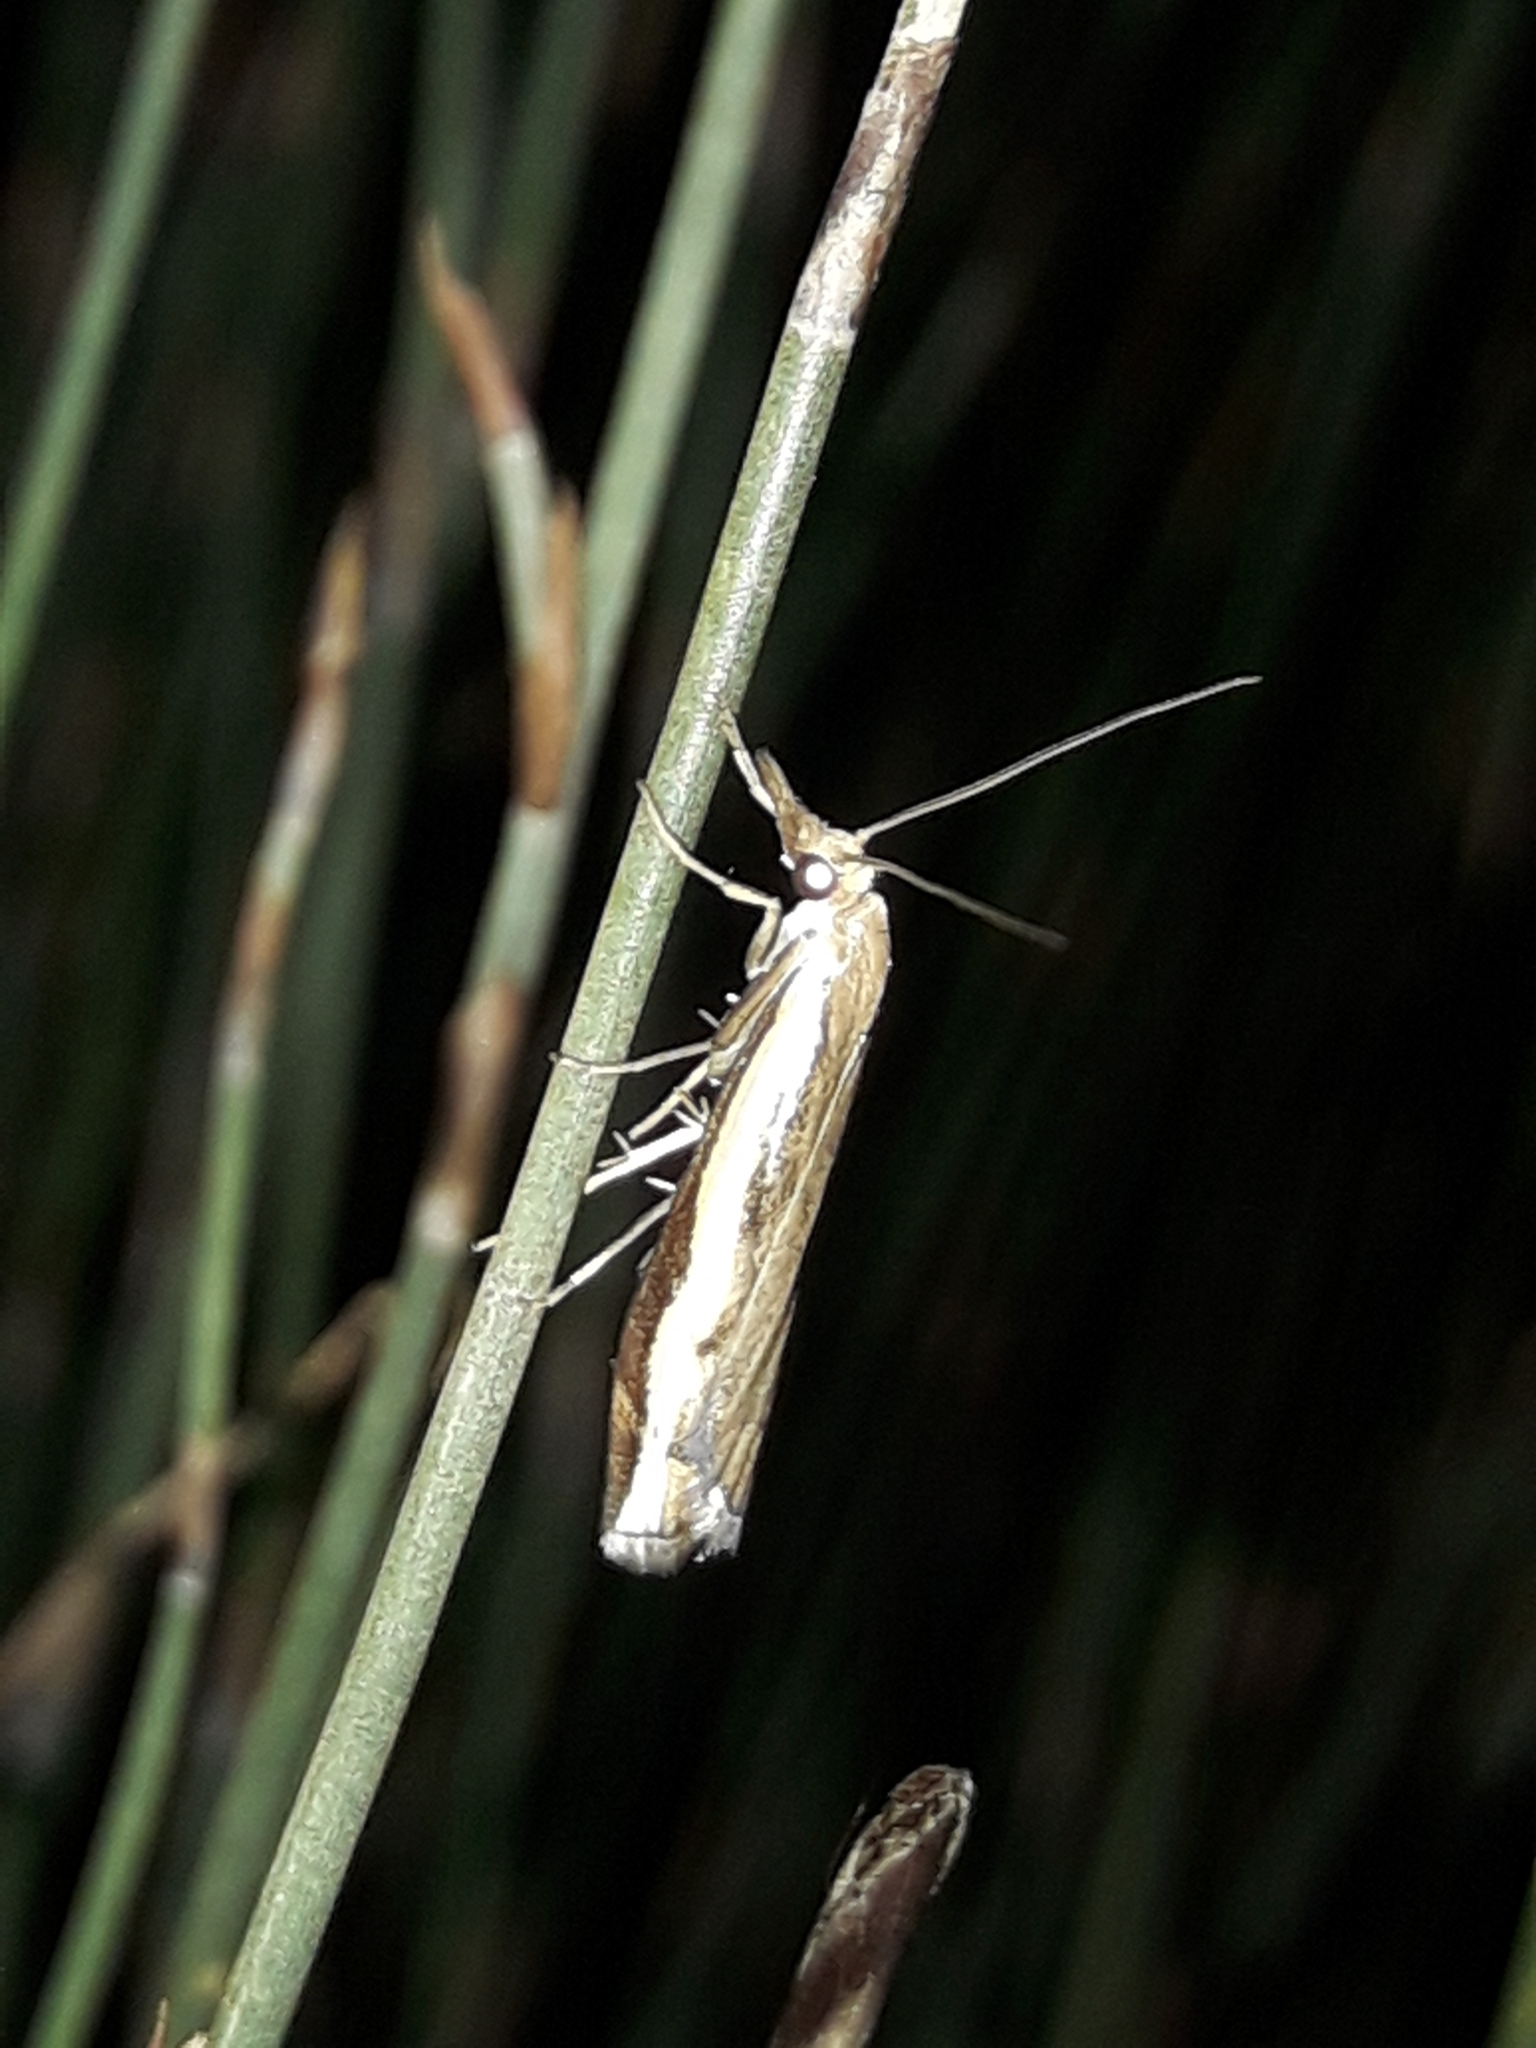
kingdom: Animalia
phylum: Arthropoda
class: Insecta
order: Lepidoptera
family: Crambidae
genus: Orocrambus
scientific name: Orocrambus flexuosellus
